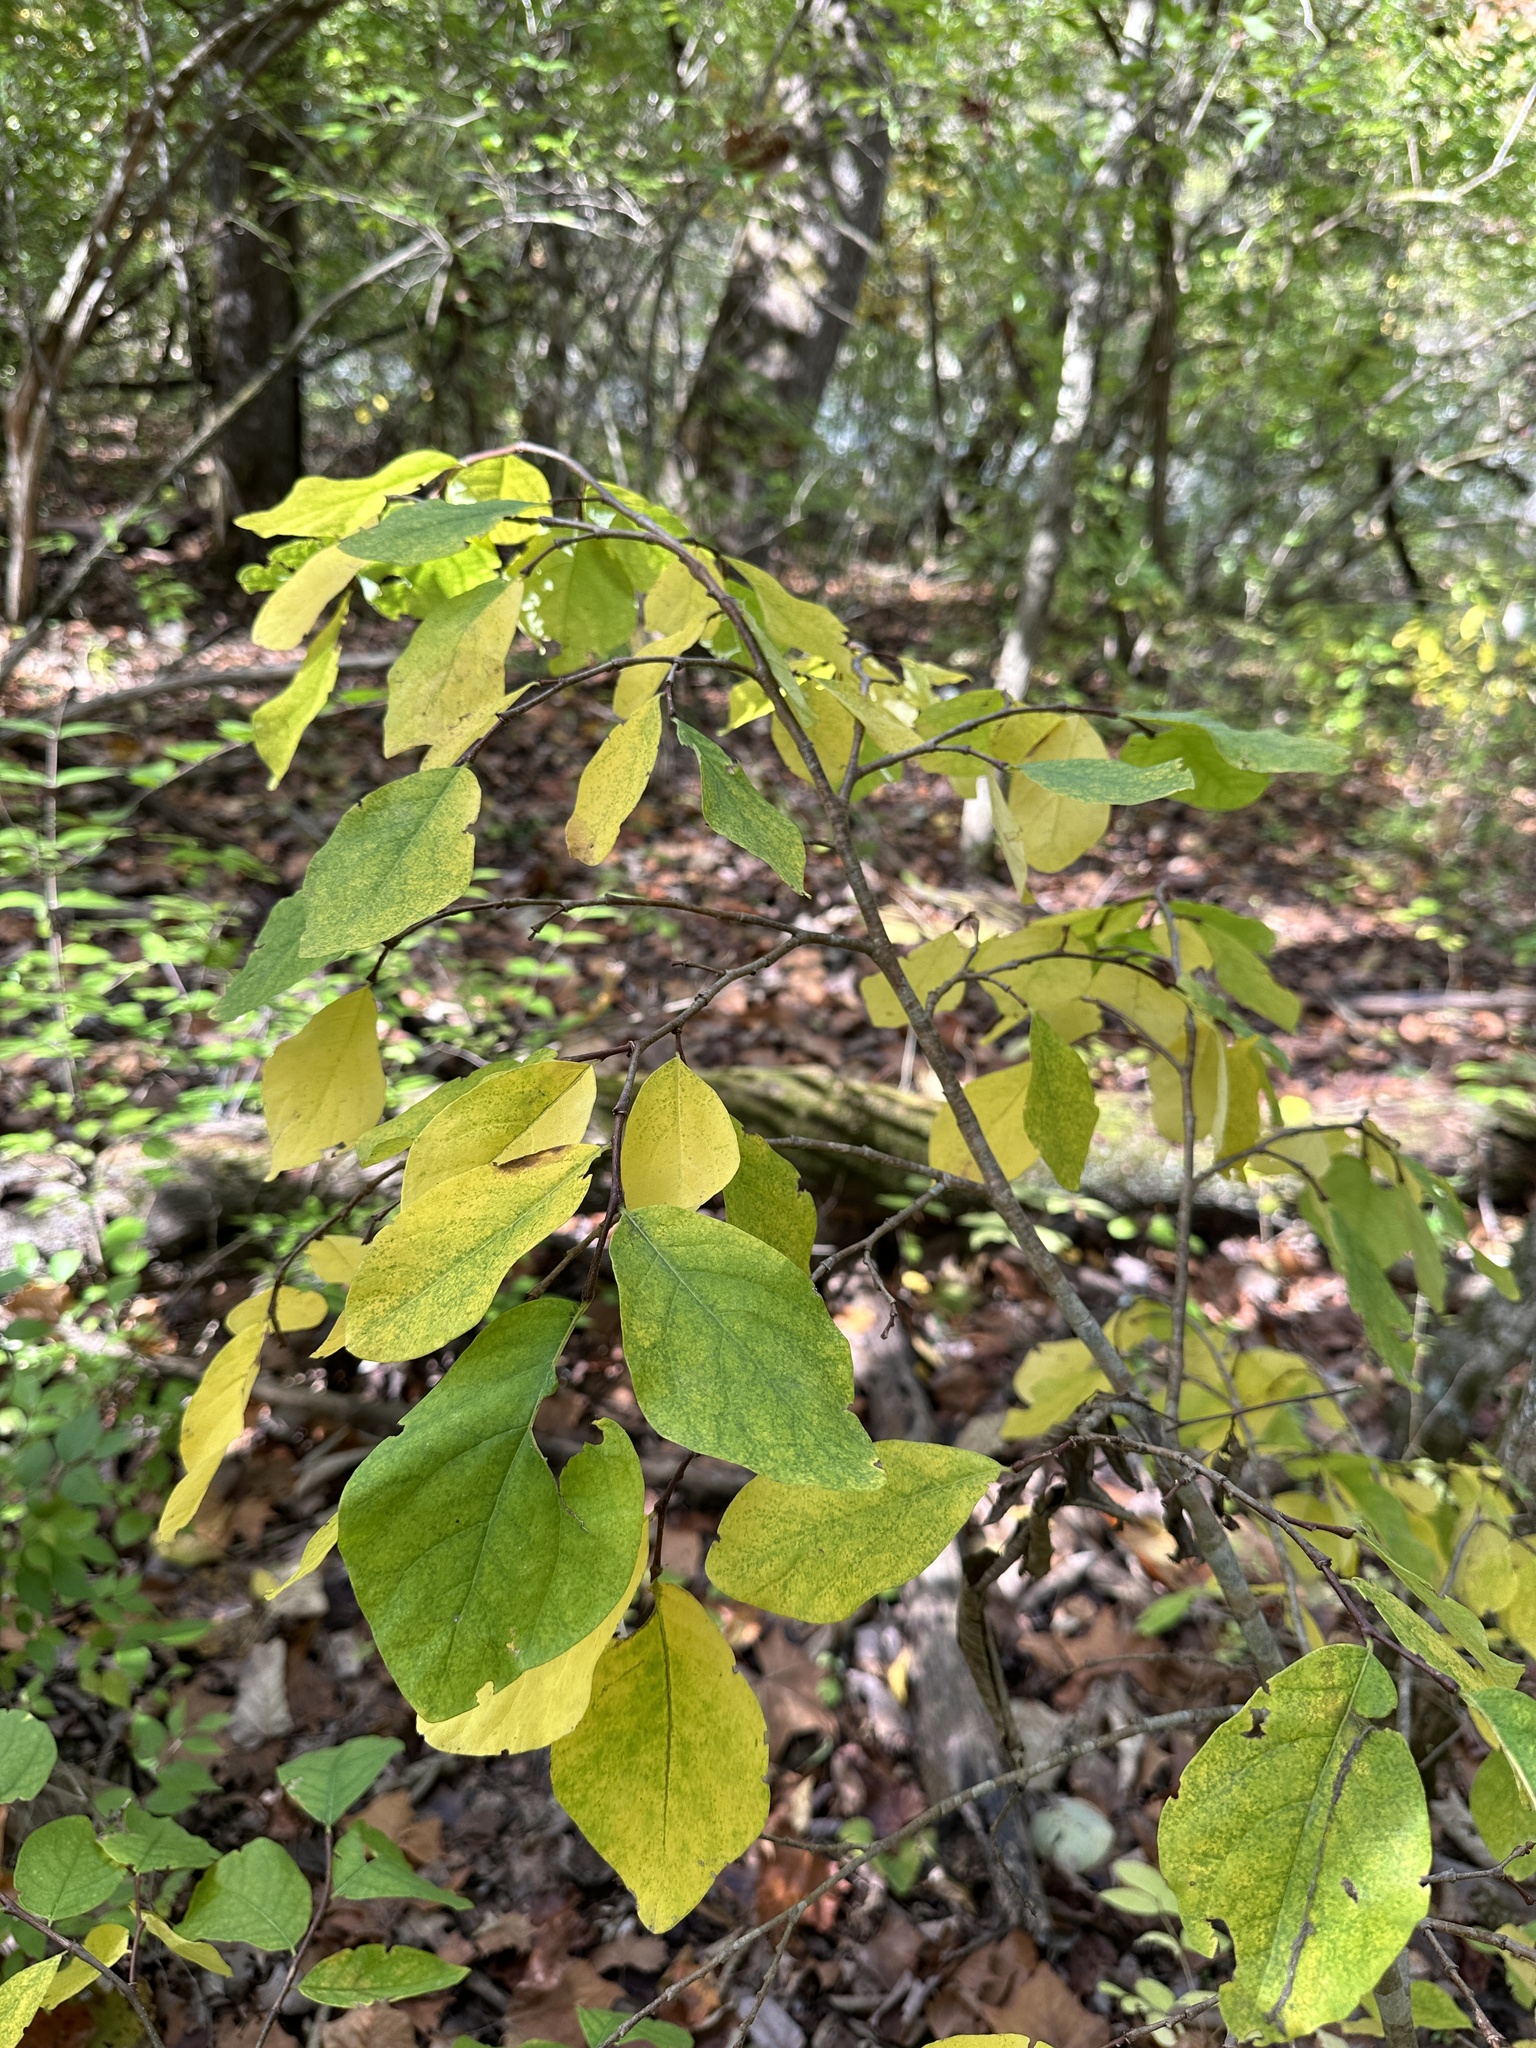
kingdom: Plantae
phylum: Tracheophyta
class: Magnoliopsida
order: Malvales
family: Thymelaeaceae
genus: Dirca
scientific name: Dirca palustris
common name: Leatherwood
